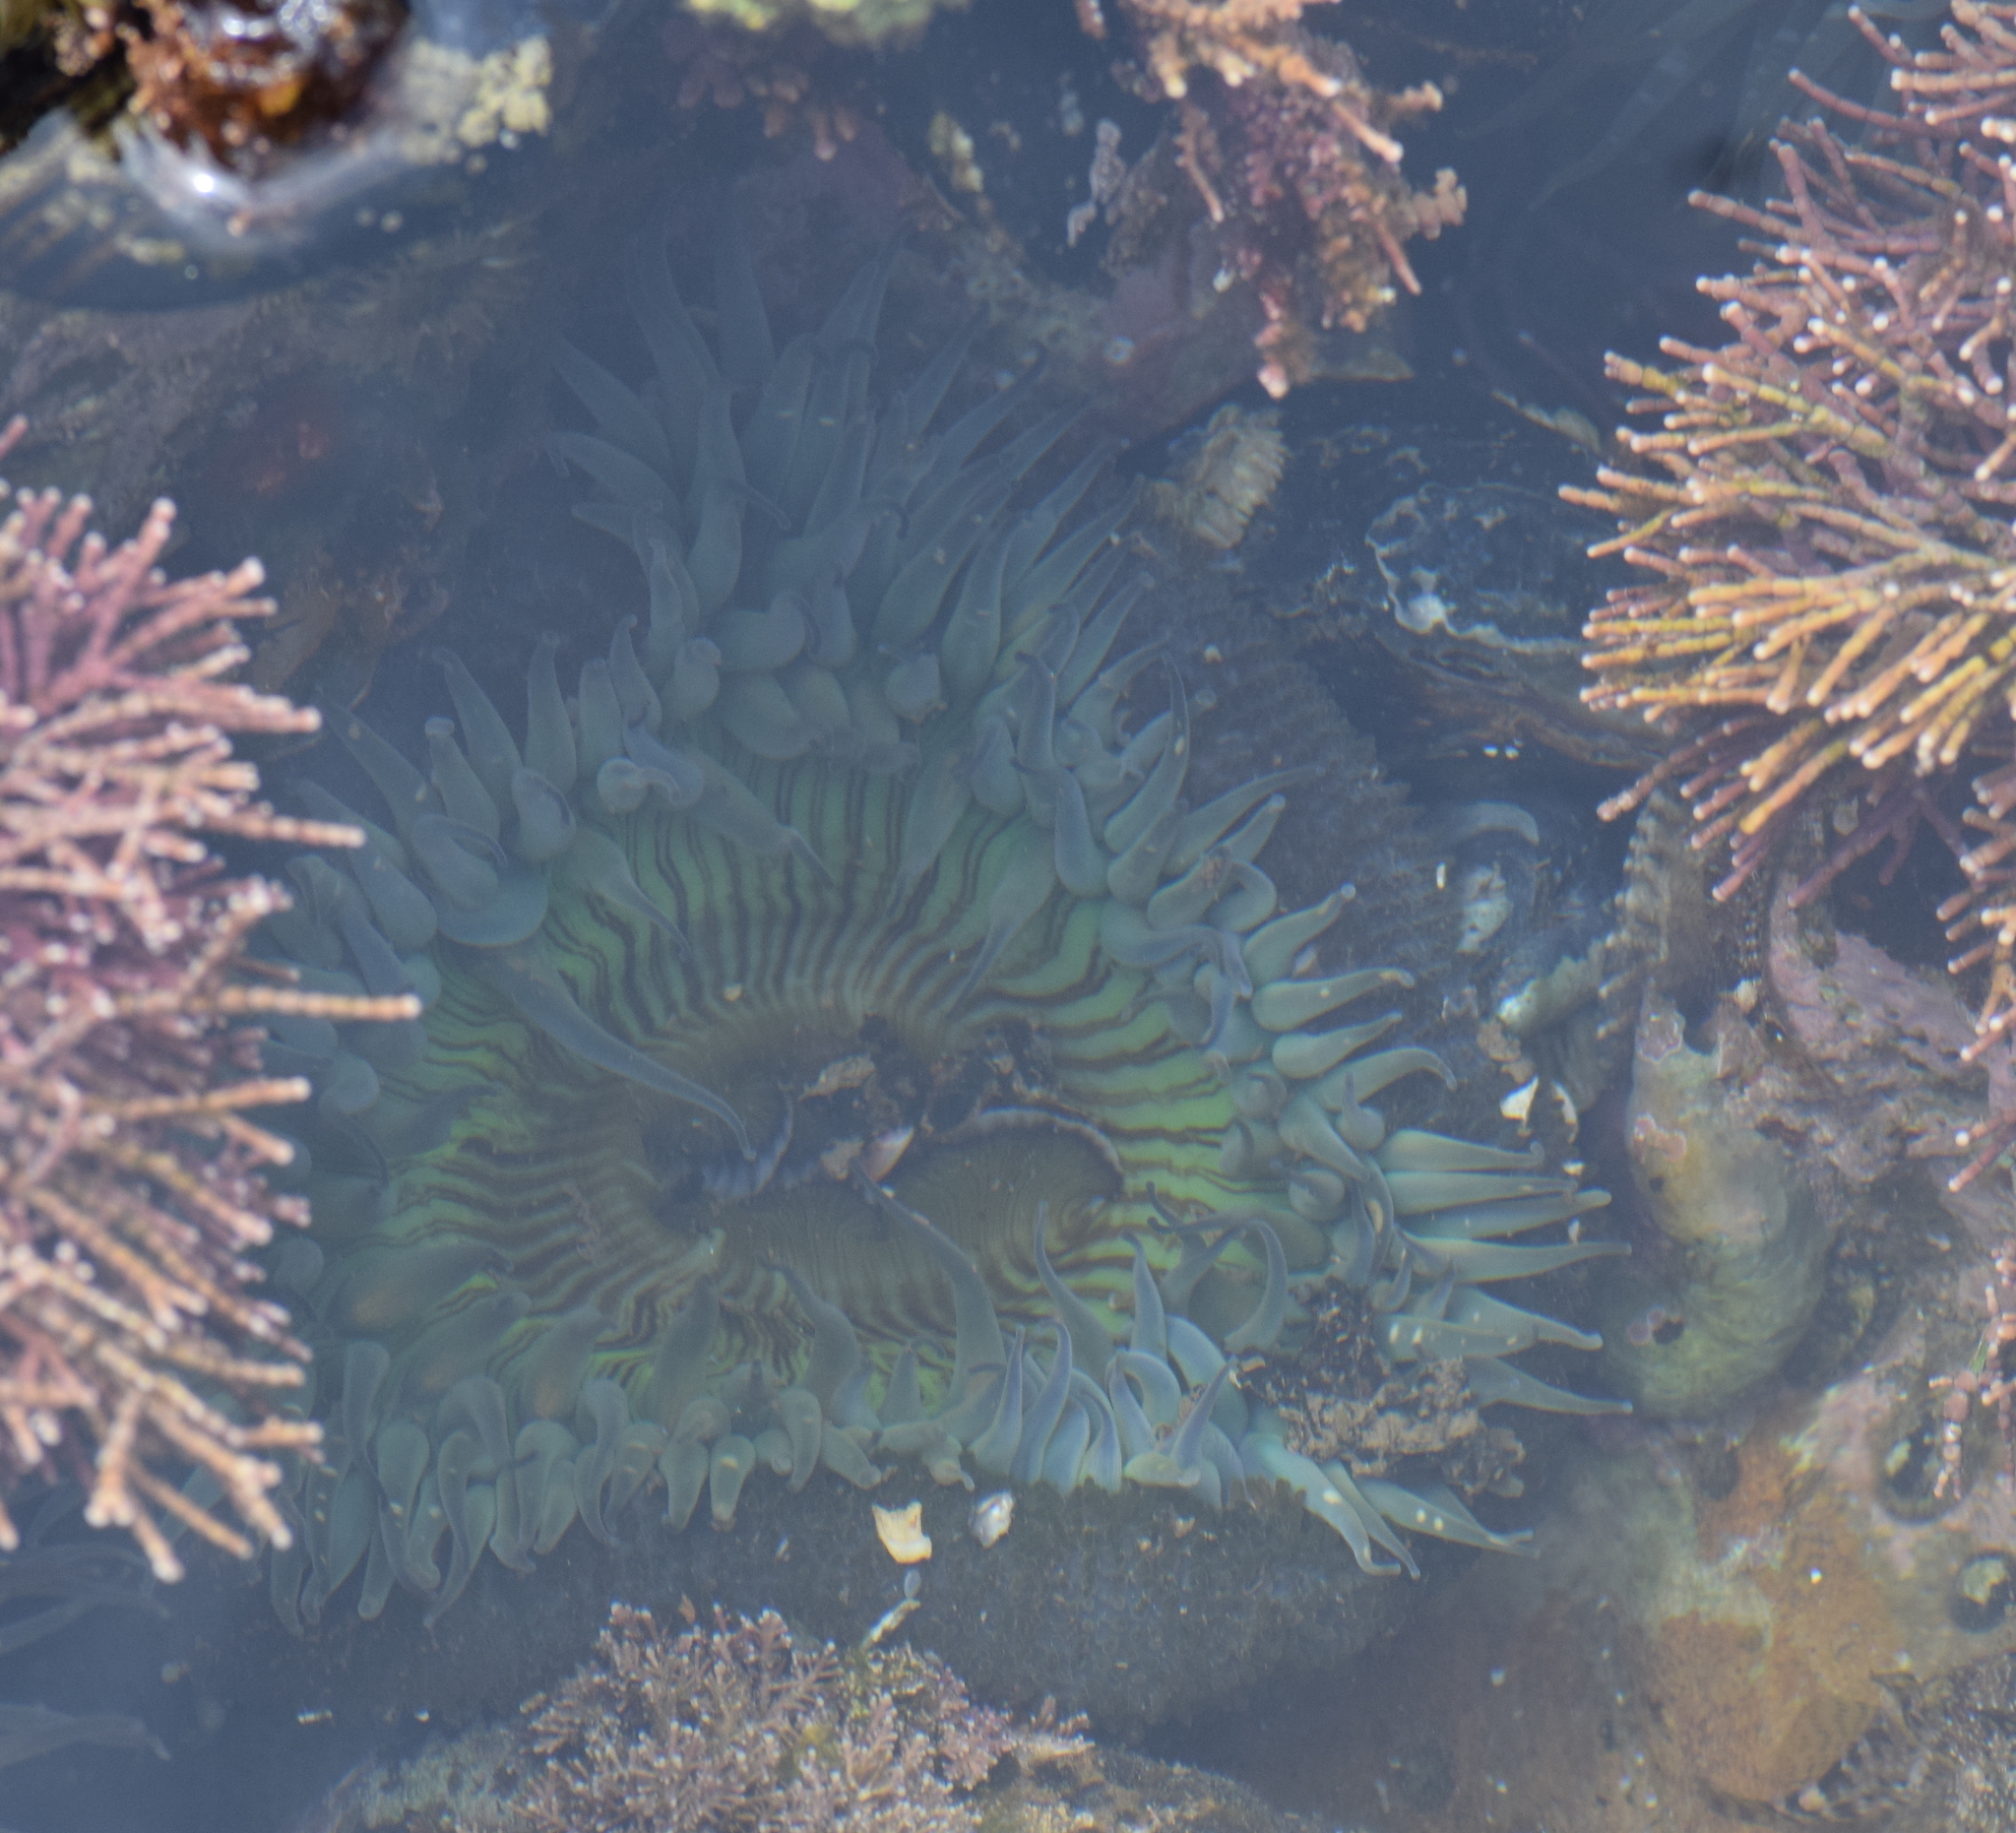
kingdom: Animalia
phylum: Cnidaria
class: Anthozoa
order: Actiniaria
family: Actiniidae
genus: Anthopleura
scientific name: Anthopleura sola
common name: Sun anemone
